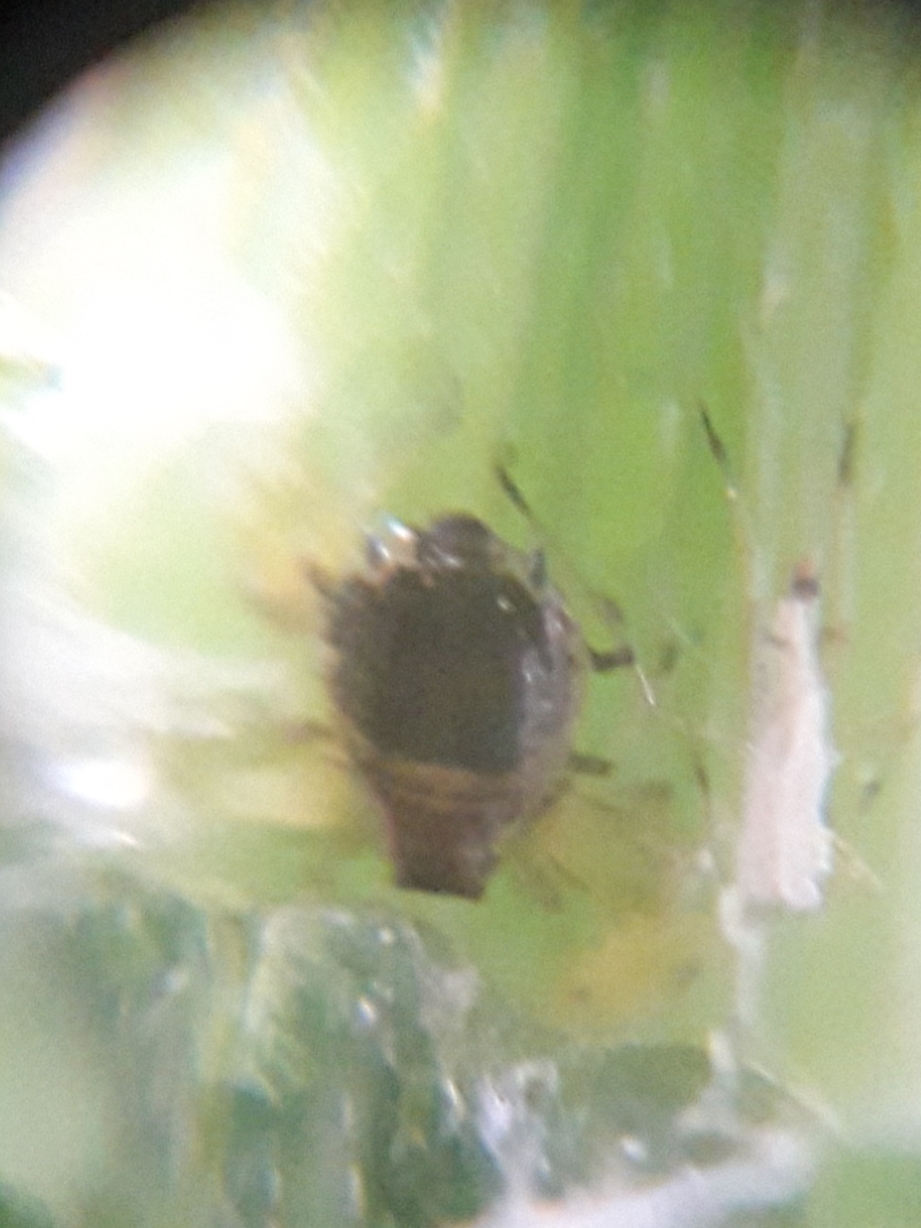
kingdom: Animalia
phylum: Arthropoda
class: Insecta
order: Hemiptera
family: Aphididae
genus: Brachycaudus
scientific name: Brachycaudus cardui
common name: Thistle aphid
